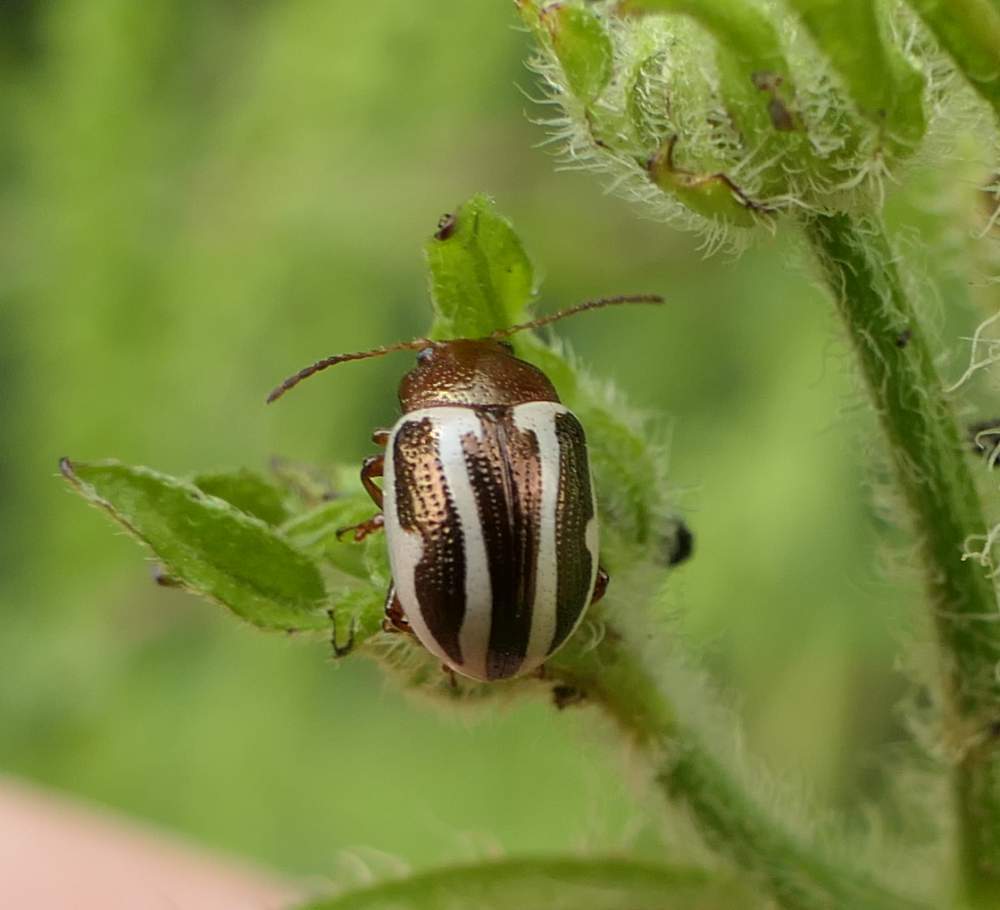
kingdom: Animalia
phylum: Arthropoda
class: Insecta
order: Coleoptera
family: Chrysomelidae
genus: Calligrapha
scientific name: Calligrapha bidenticola
